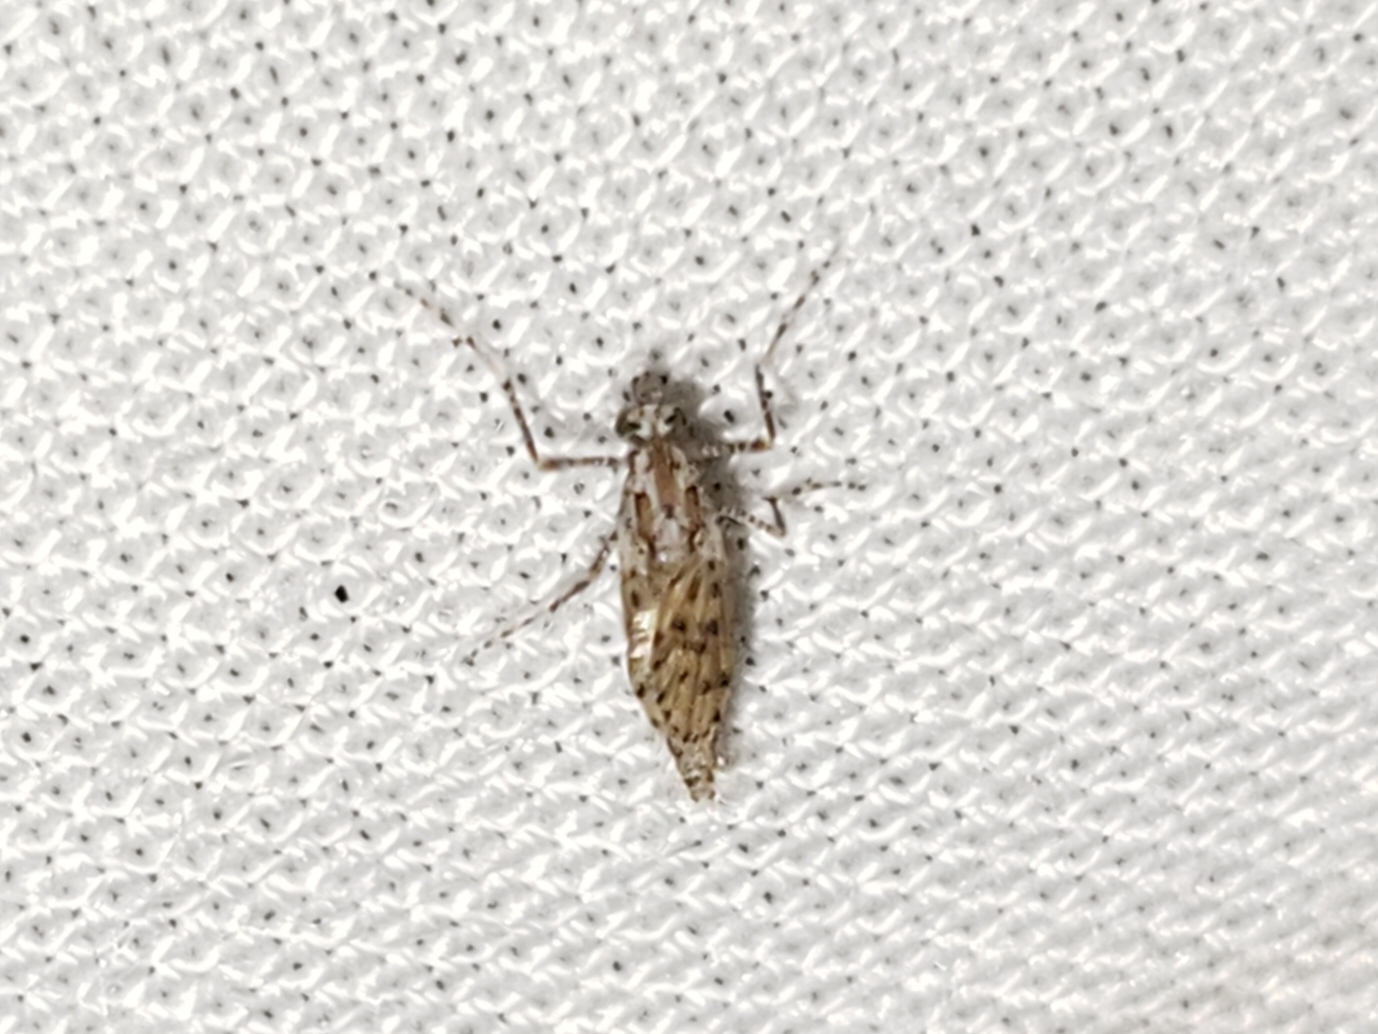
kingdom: Animalia
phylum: Arthropoda
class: Insecta
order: Diptera
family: Chaoboridae
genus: Chaoborus
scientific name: Chaoborus punctipennis
